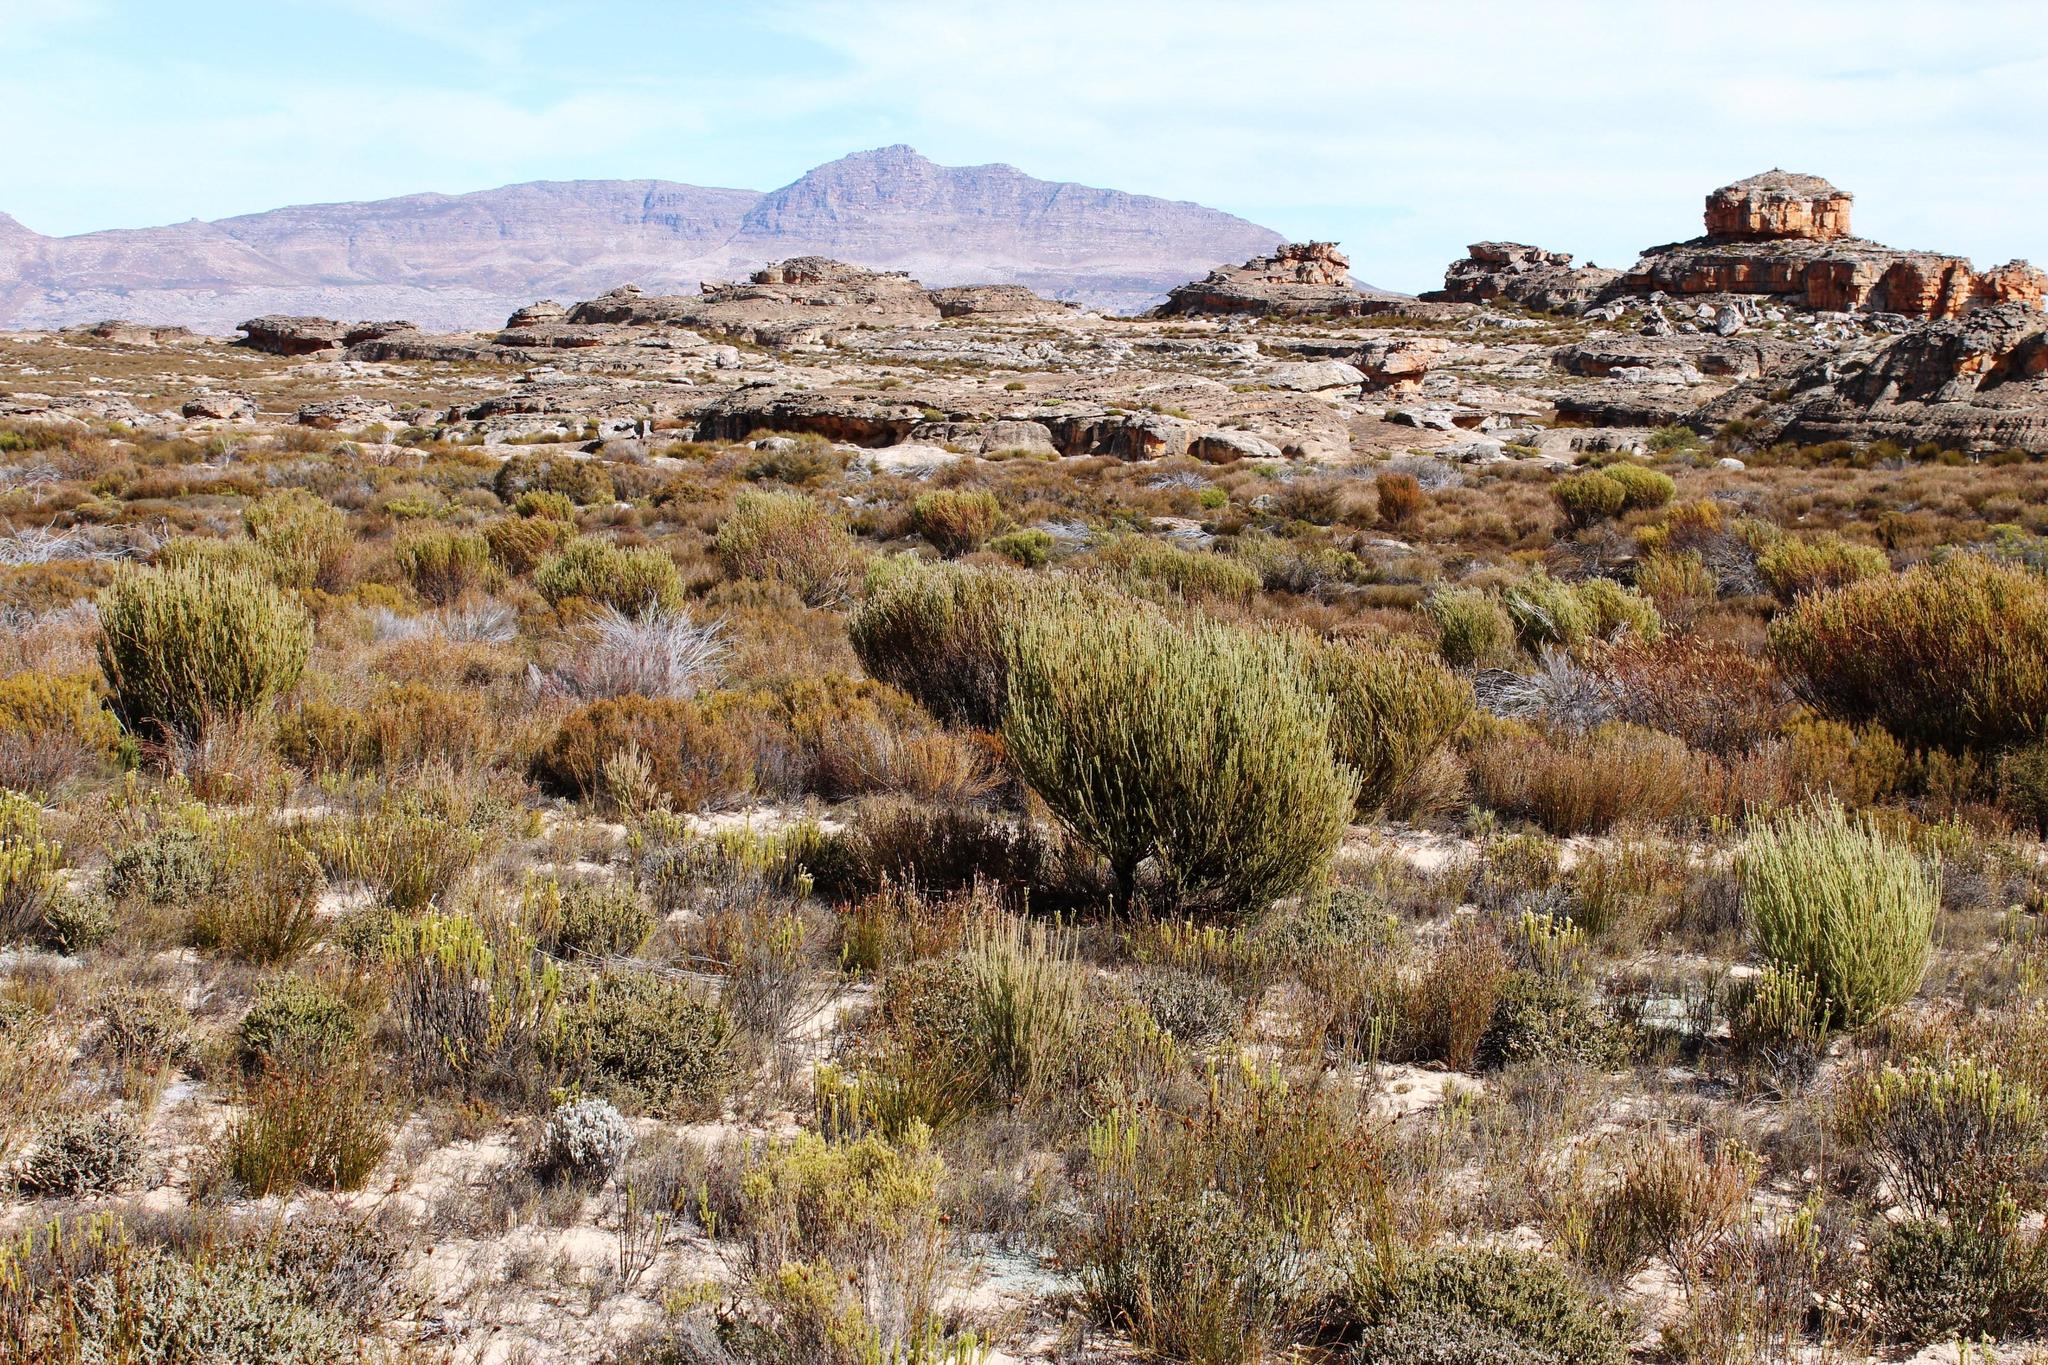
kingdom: Plantae
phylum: Tracheophyta
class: Magnoliopsida
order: Proteales
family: Proteaceae
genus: Leucadendron
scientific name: Leucadendron dubium
